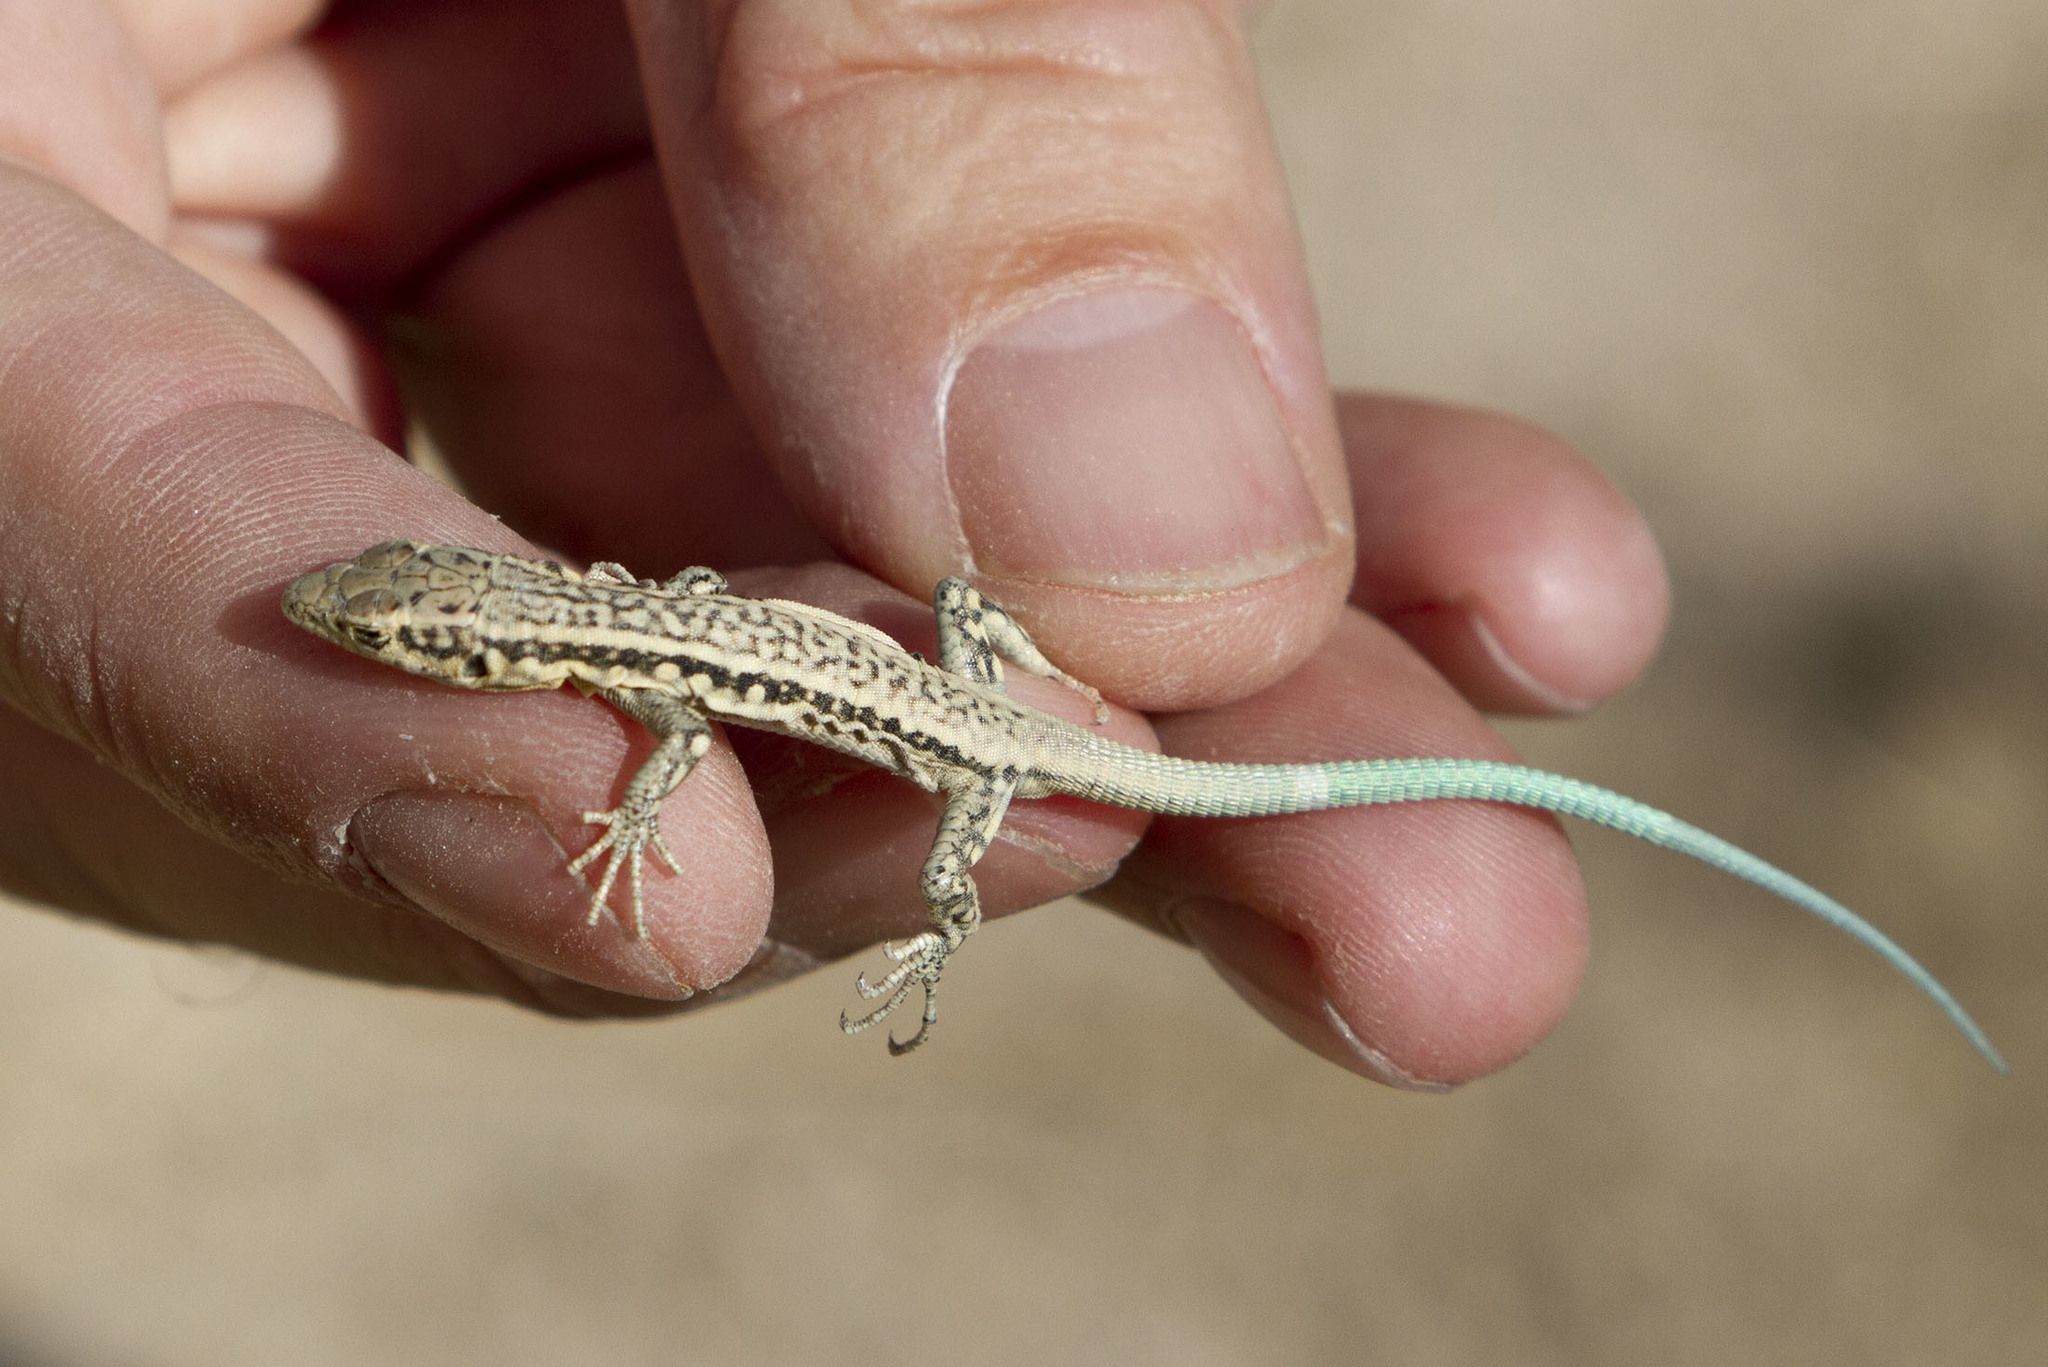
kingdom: Animalia
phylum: Chordata
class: Squamata
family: Lacertidae
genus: Apathya
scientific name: Apathya cappadocica
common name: Anatolian lizard
